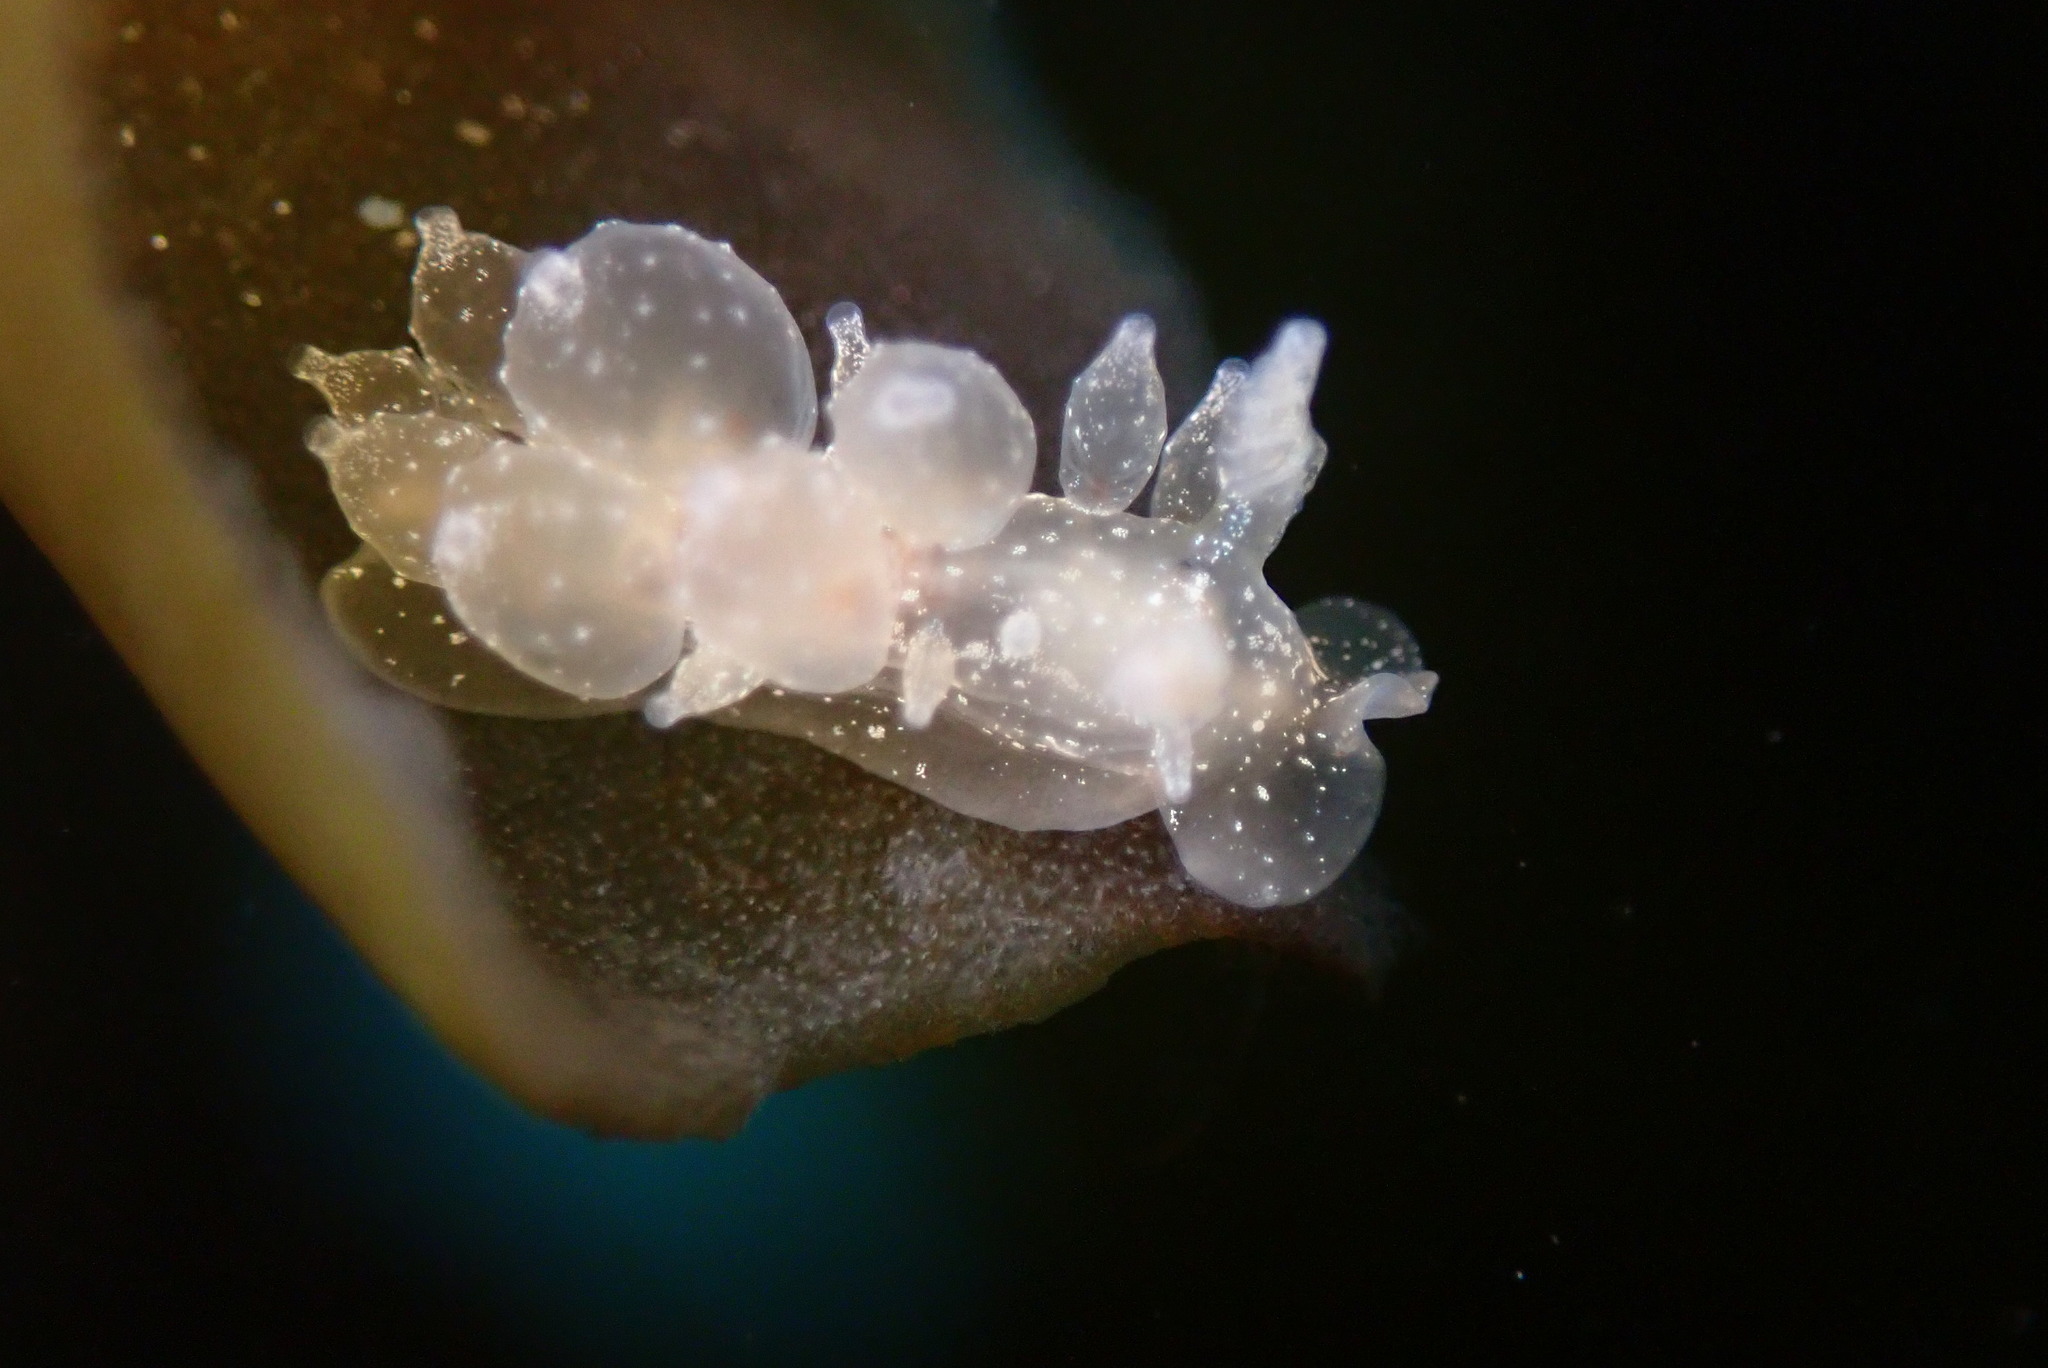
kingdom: Animalia
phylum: Mollusca
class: Gastropoda
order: Nudibranchia
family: Dironidae
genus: Dirona
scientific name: Dirona picta
